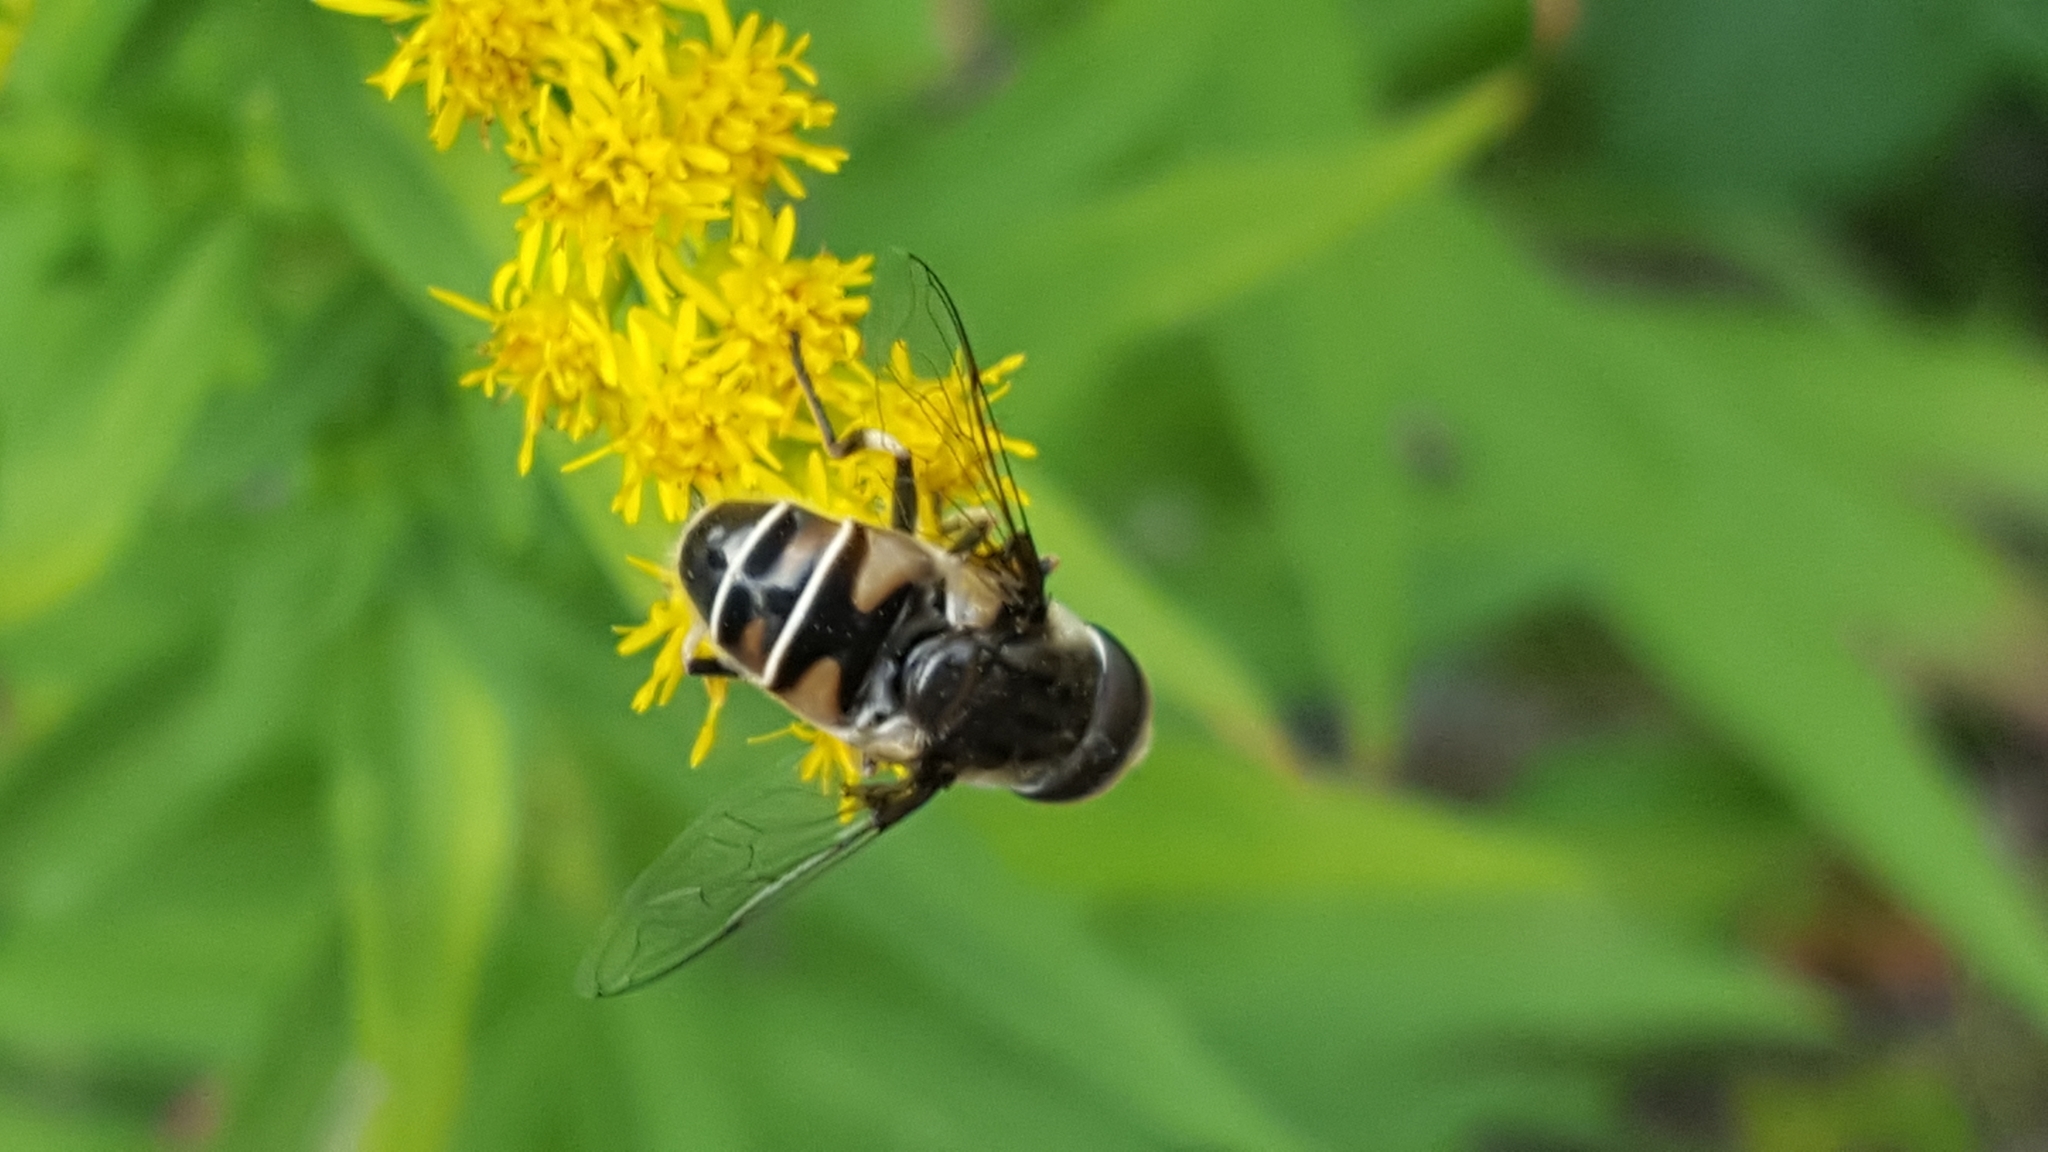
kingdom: Animalia
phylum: Arthropoda
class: Insecta
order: Diptera
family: Syrphidae
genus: Eristalis
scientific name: Eristalis dimidiata
